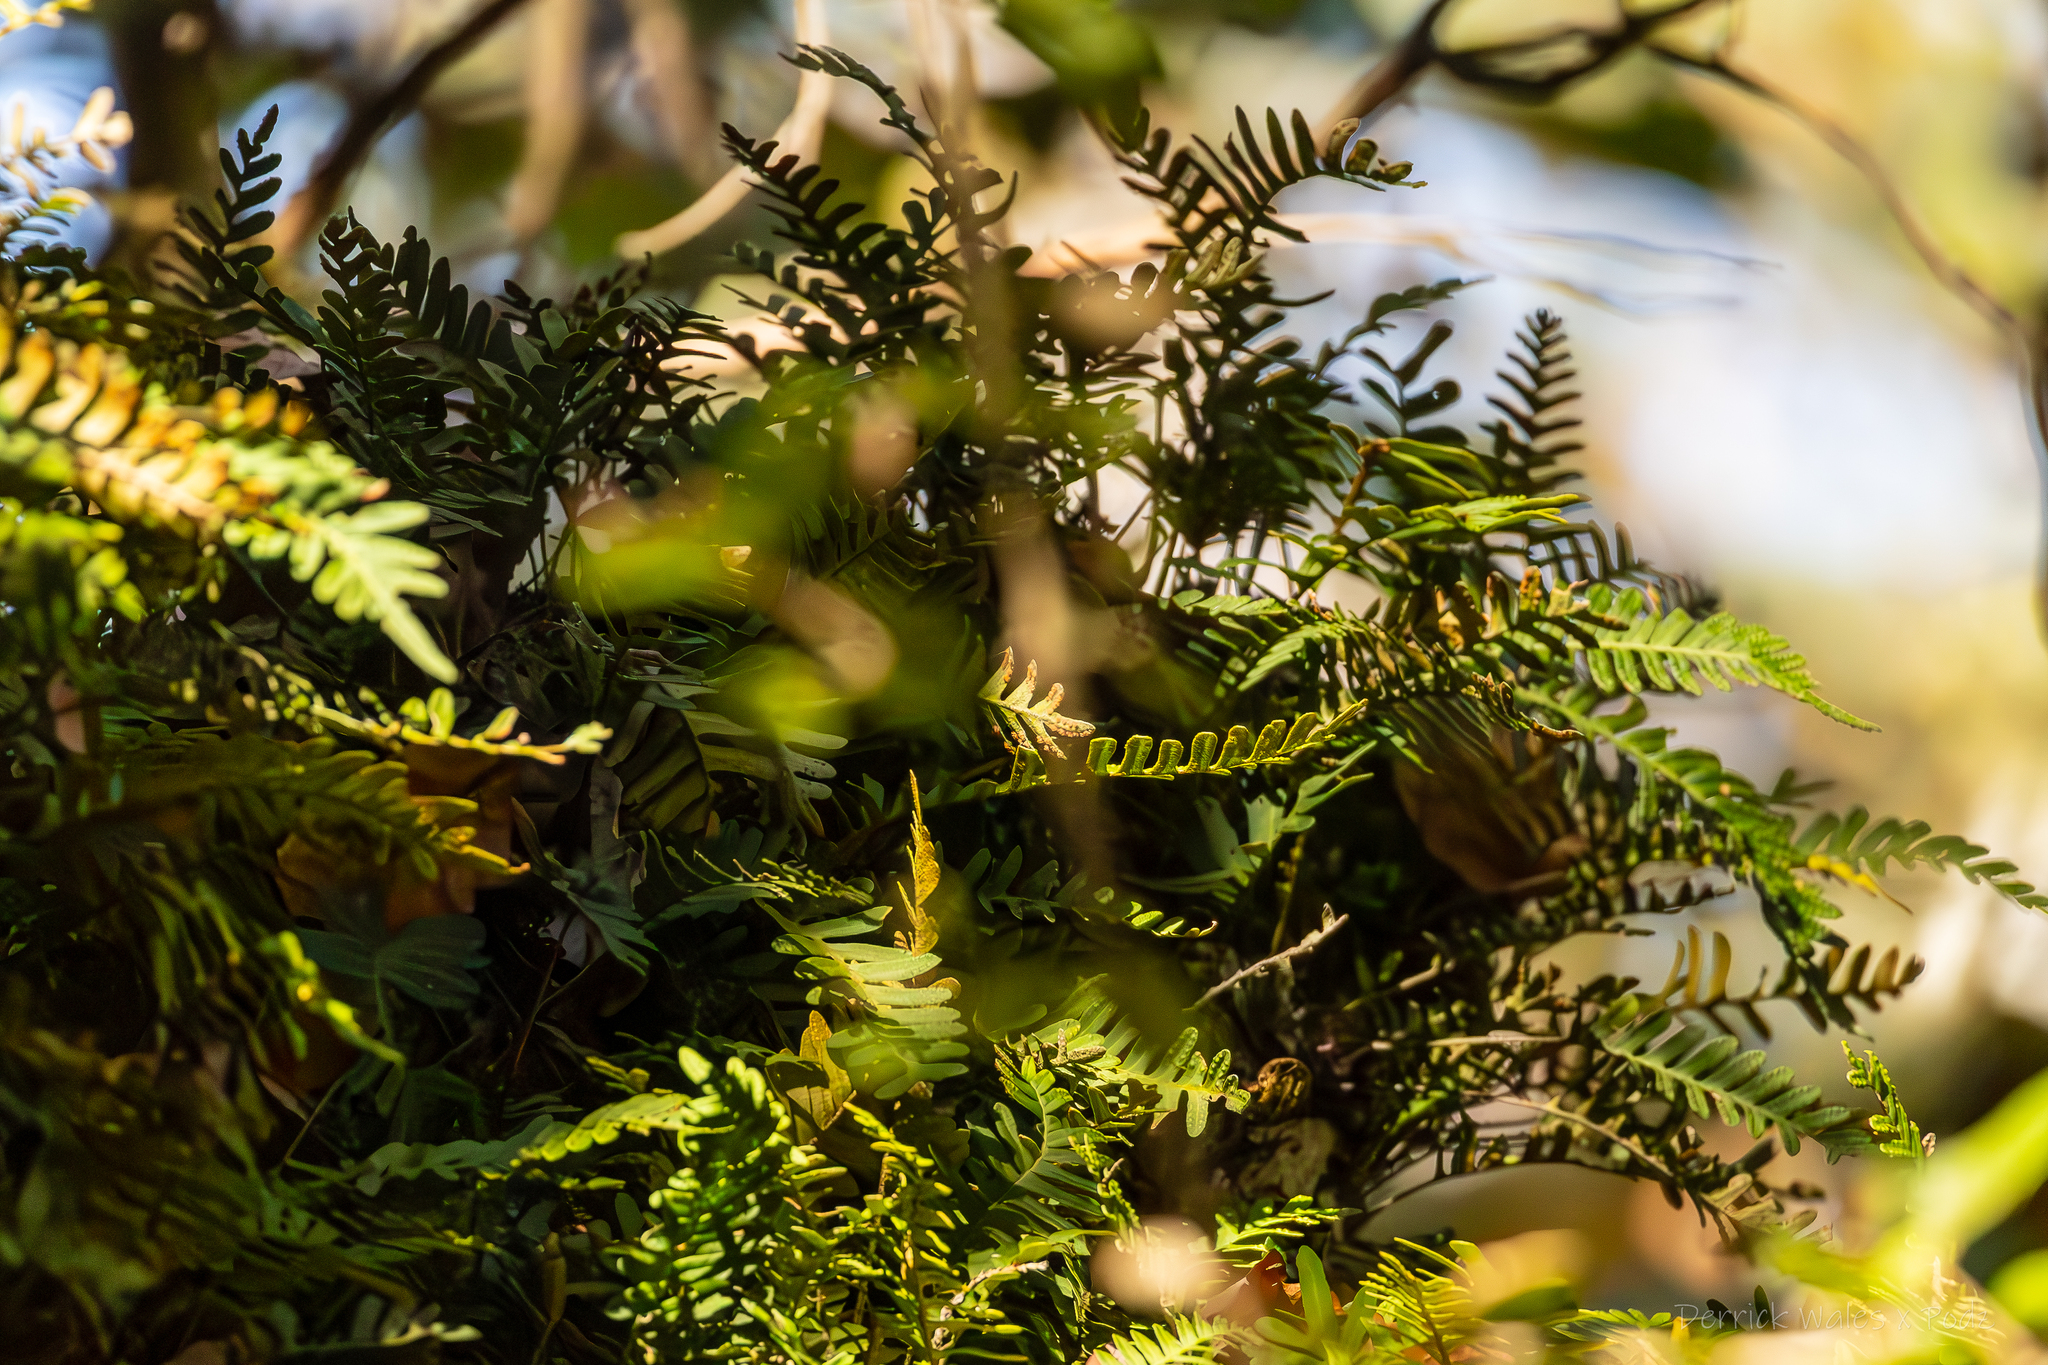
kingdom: Plantae
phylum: Tracheophyta
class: Polypodiopsida
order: Polypodiales
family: Polypodiaceae
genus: Pleopeltis
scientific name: Pleopeltis michauxiana
